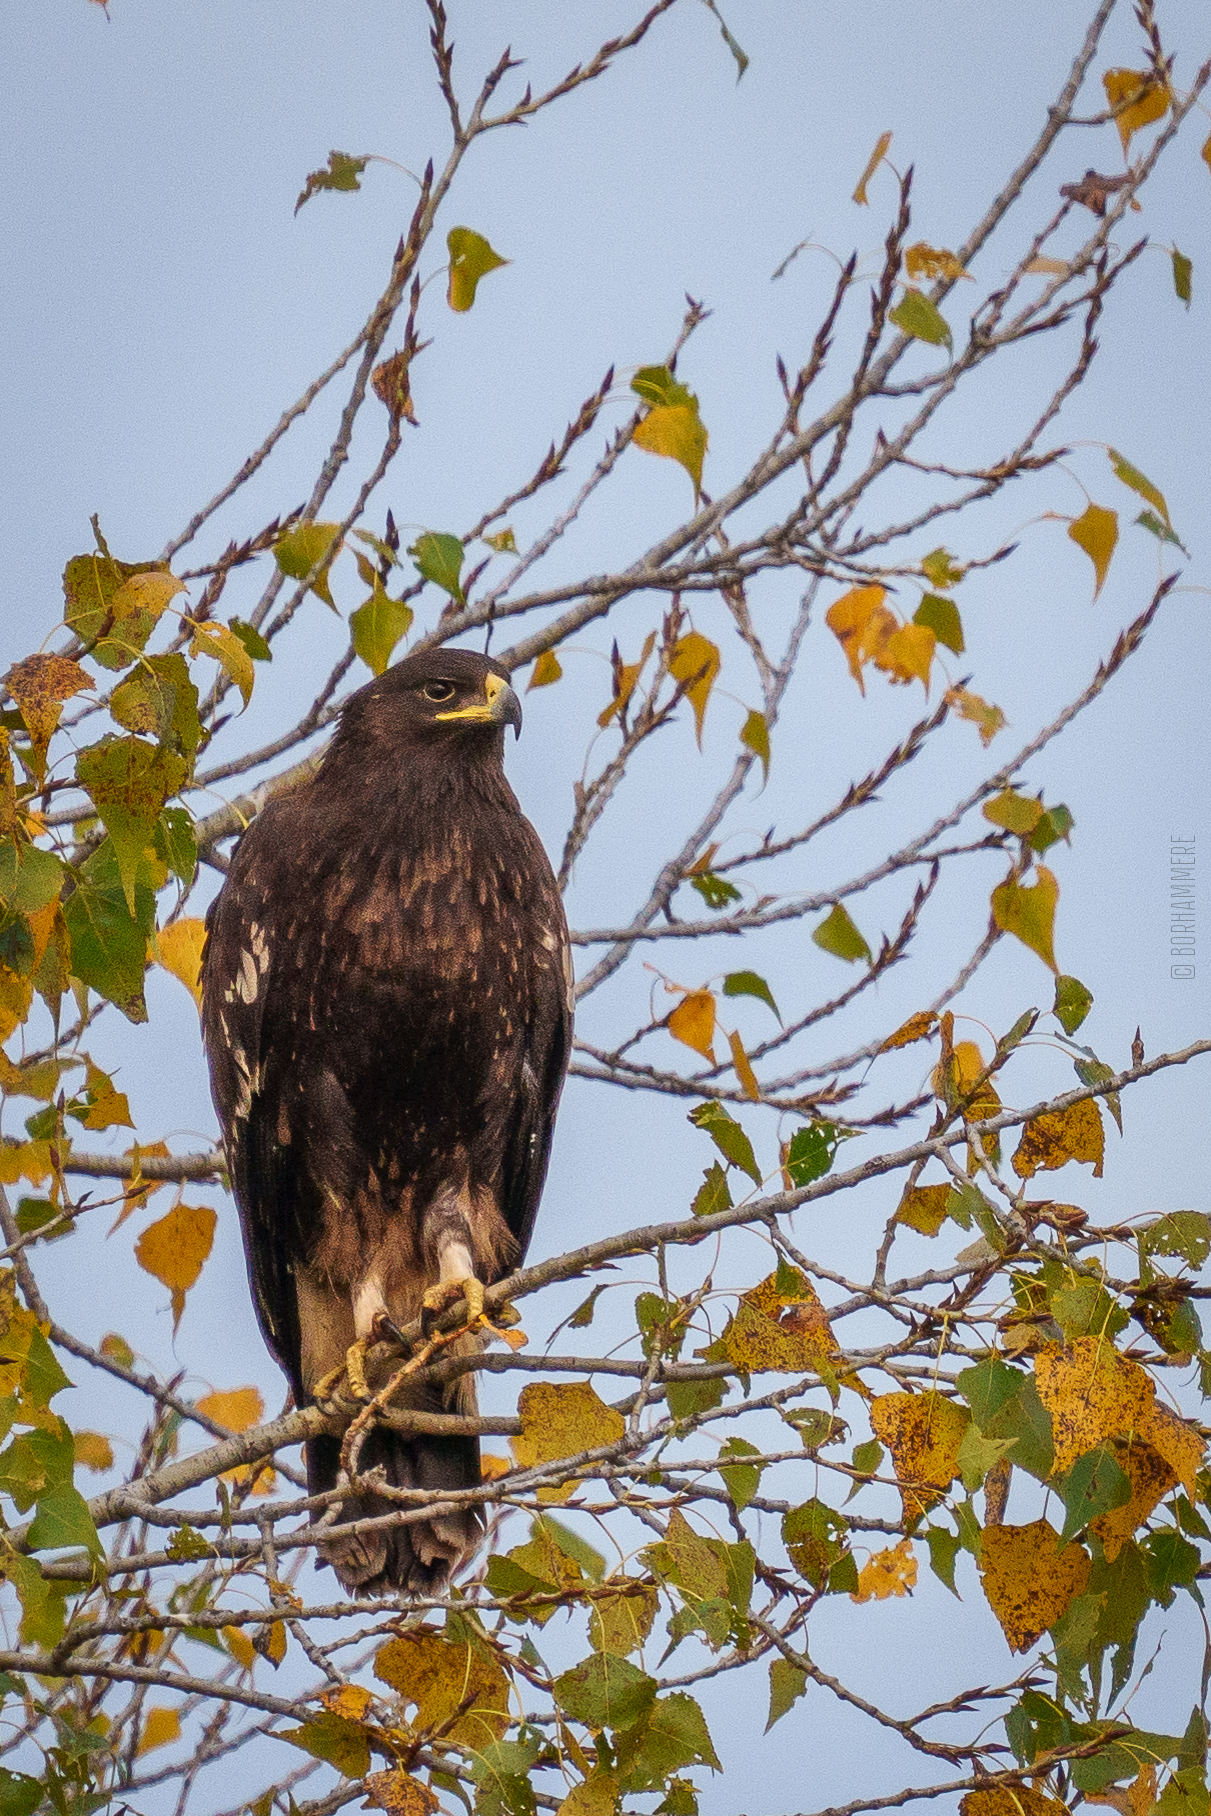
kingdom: Animalia
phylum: Chordata
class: Aves
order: Accipitriformes
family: Accipitridae
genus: Aquila
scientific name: Aquila clanga
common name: Greater spotted eagle
